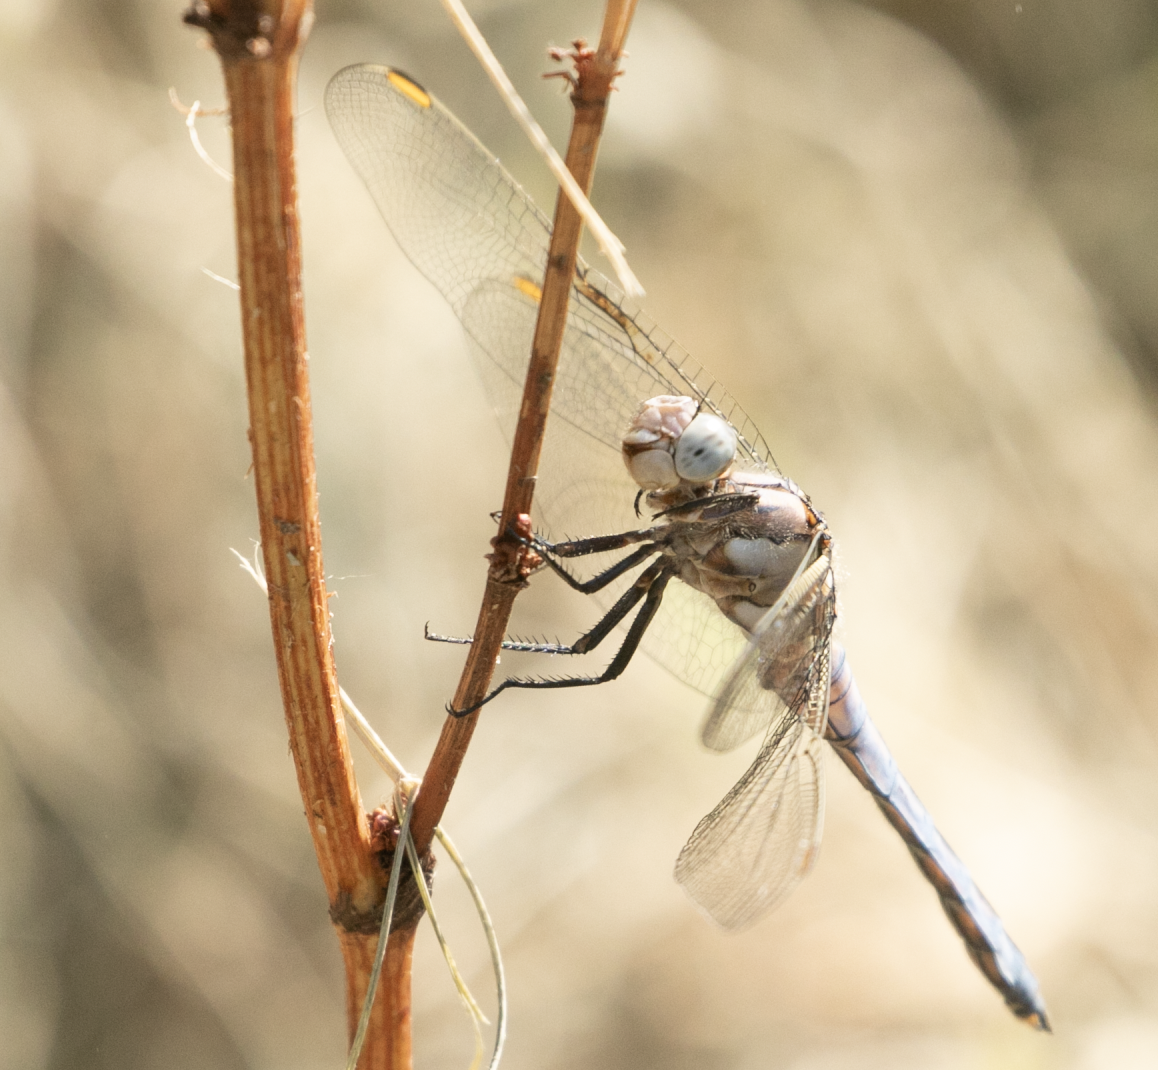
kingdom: Animalia
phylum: Arthropoda
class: Insecta
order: Odonata
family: Libellulidae
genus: Orthetrum
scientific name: Orthetrum brunneum
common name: Southern skimmer
